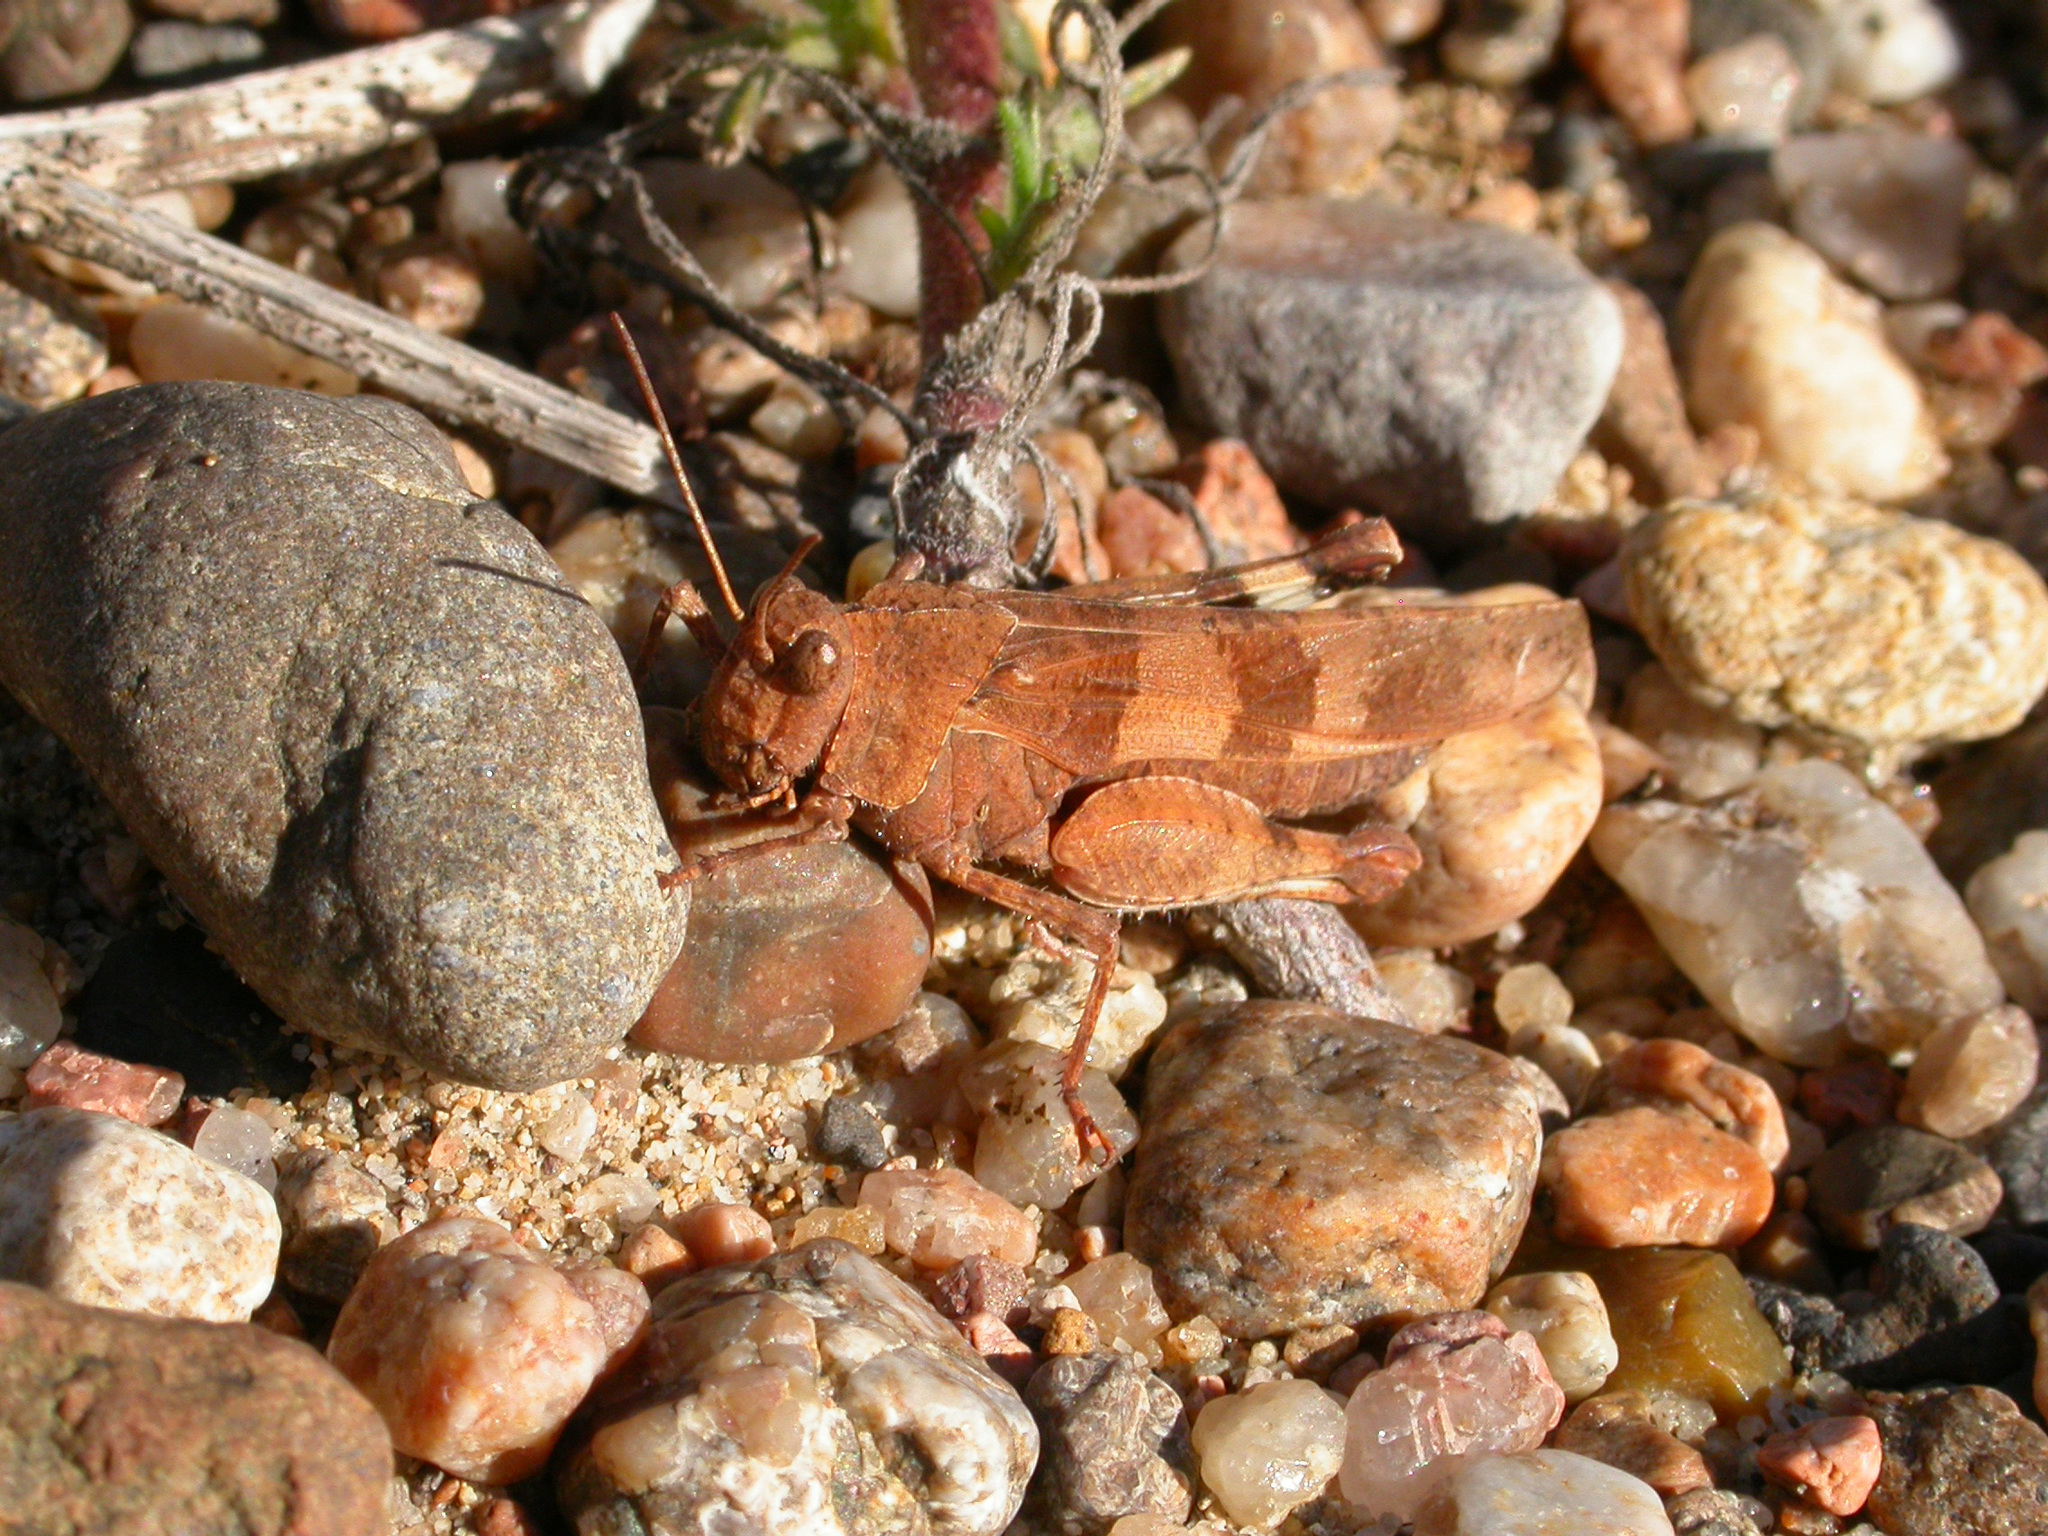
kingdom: Animalia
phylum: Arthropoda
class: Insecta
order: Orthoptera
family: Acrididae
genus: Oedipoda
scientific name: Oedipoda caerulescens
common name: Blue-winged grasshopper
